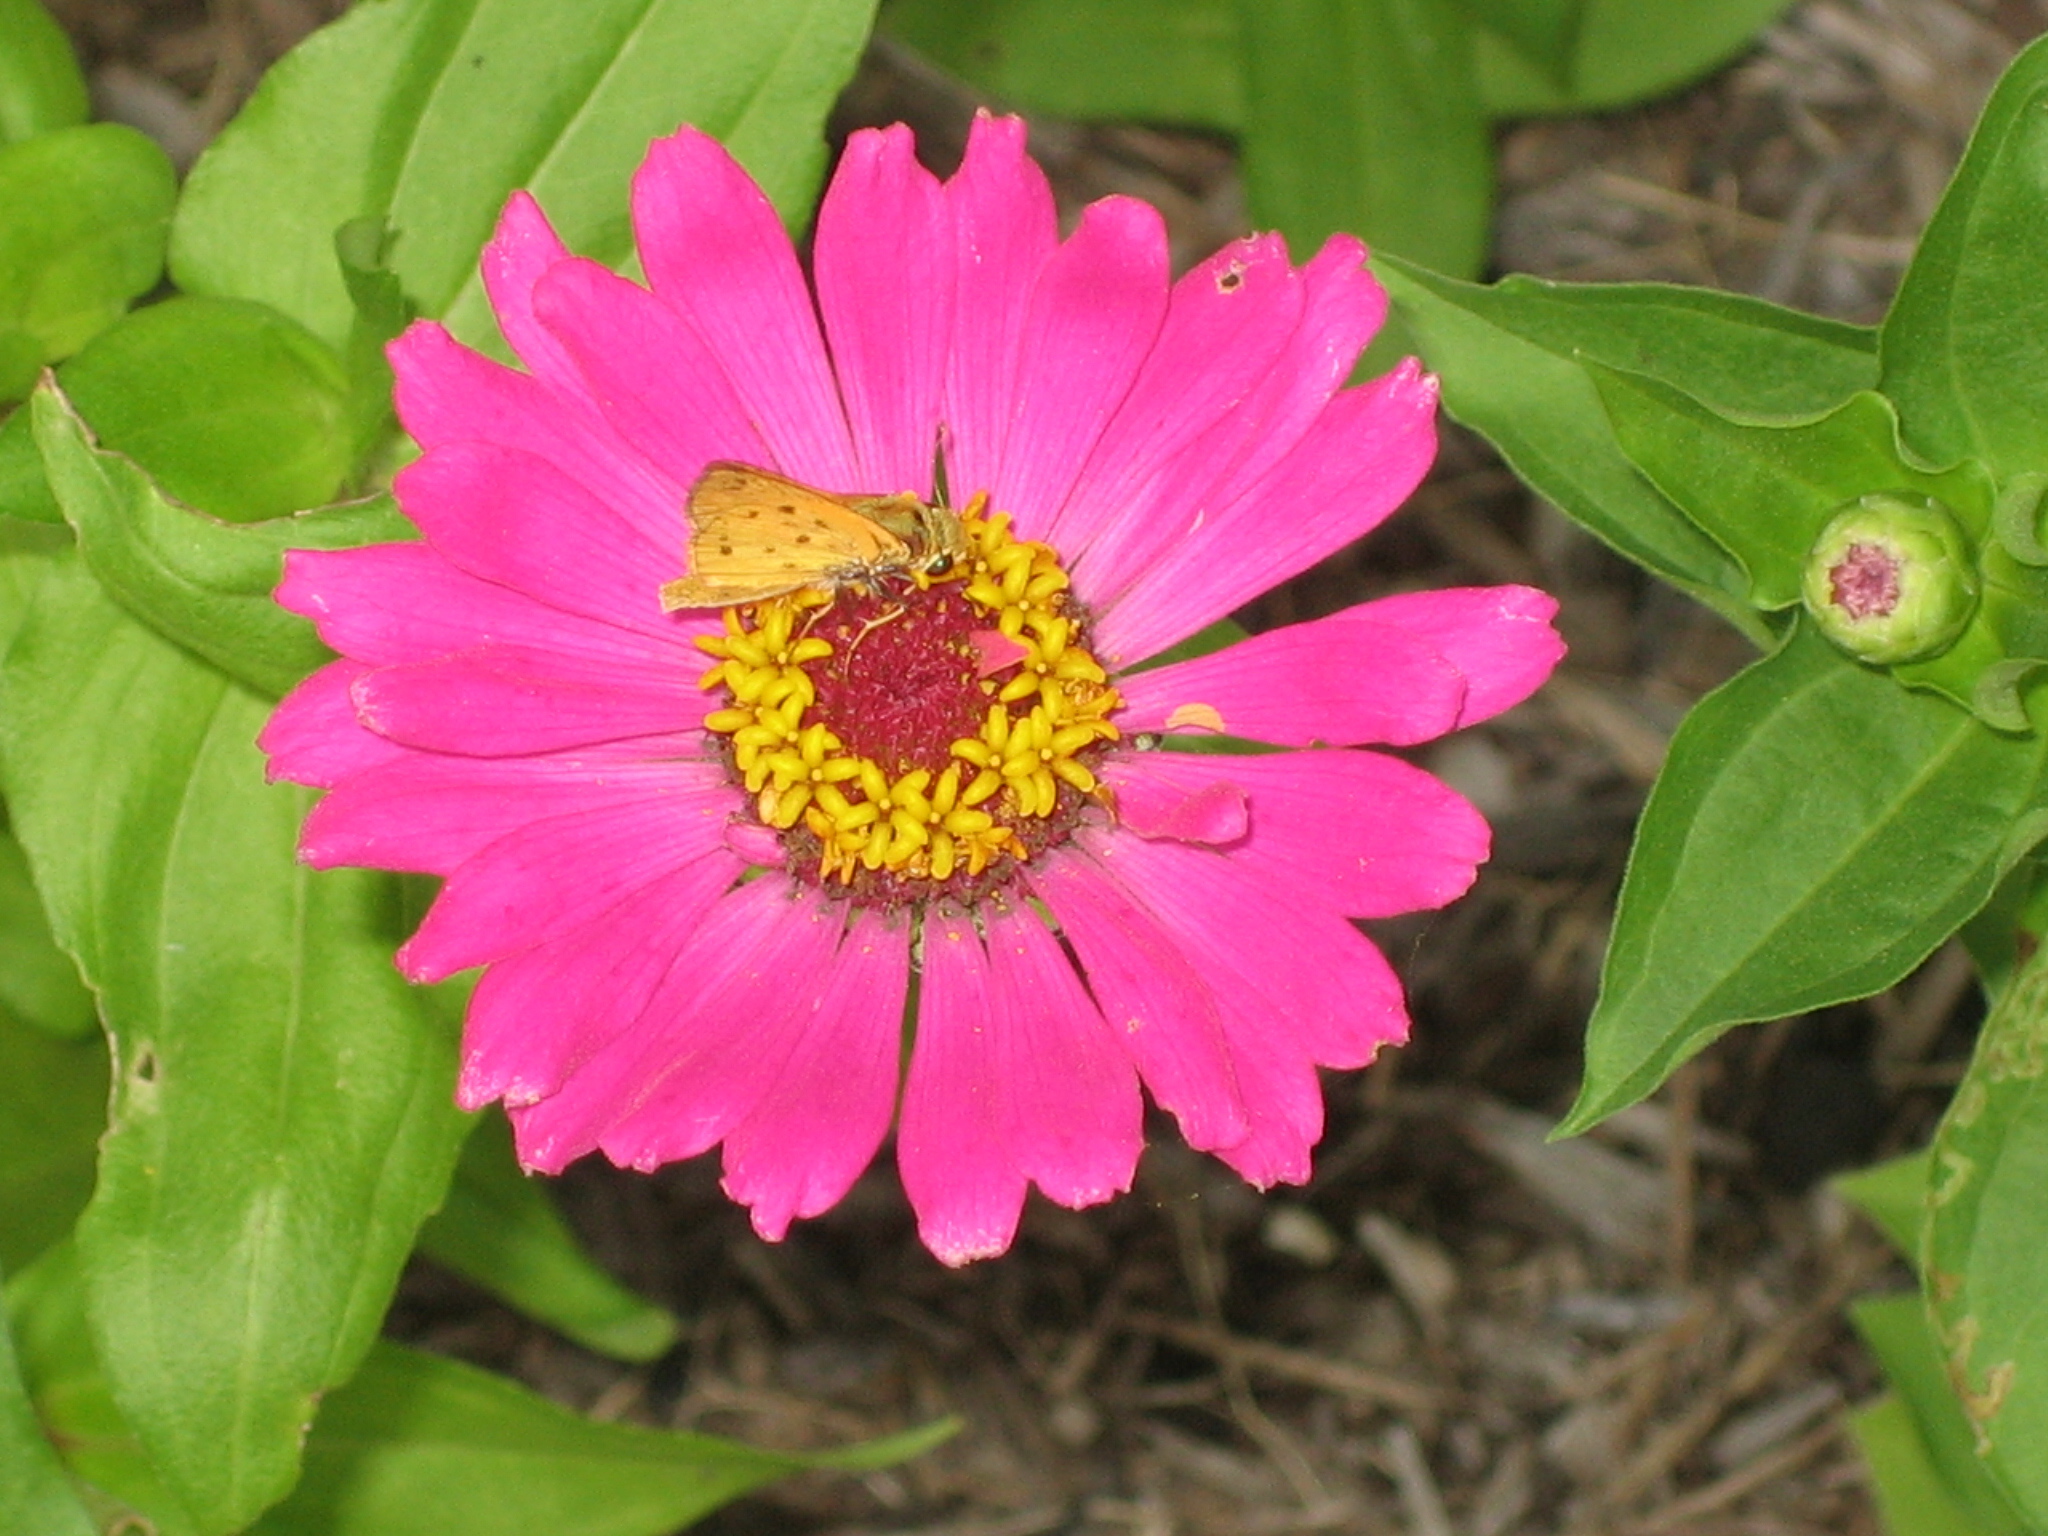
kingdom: Animalia
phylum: Arthropoda
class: Insecta
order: Lepidoptera
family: Hesperiidae
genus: Hylephila
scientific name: Hylephila phyleus
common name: Fiery skipper
